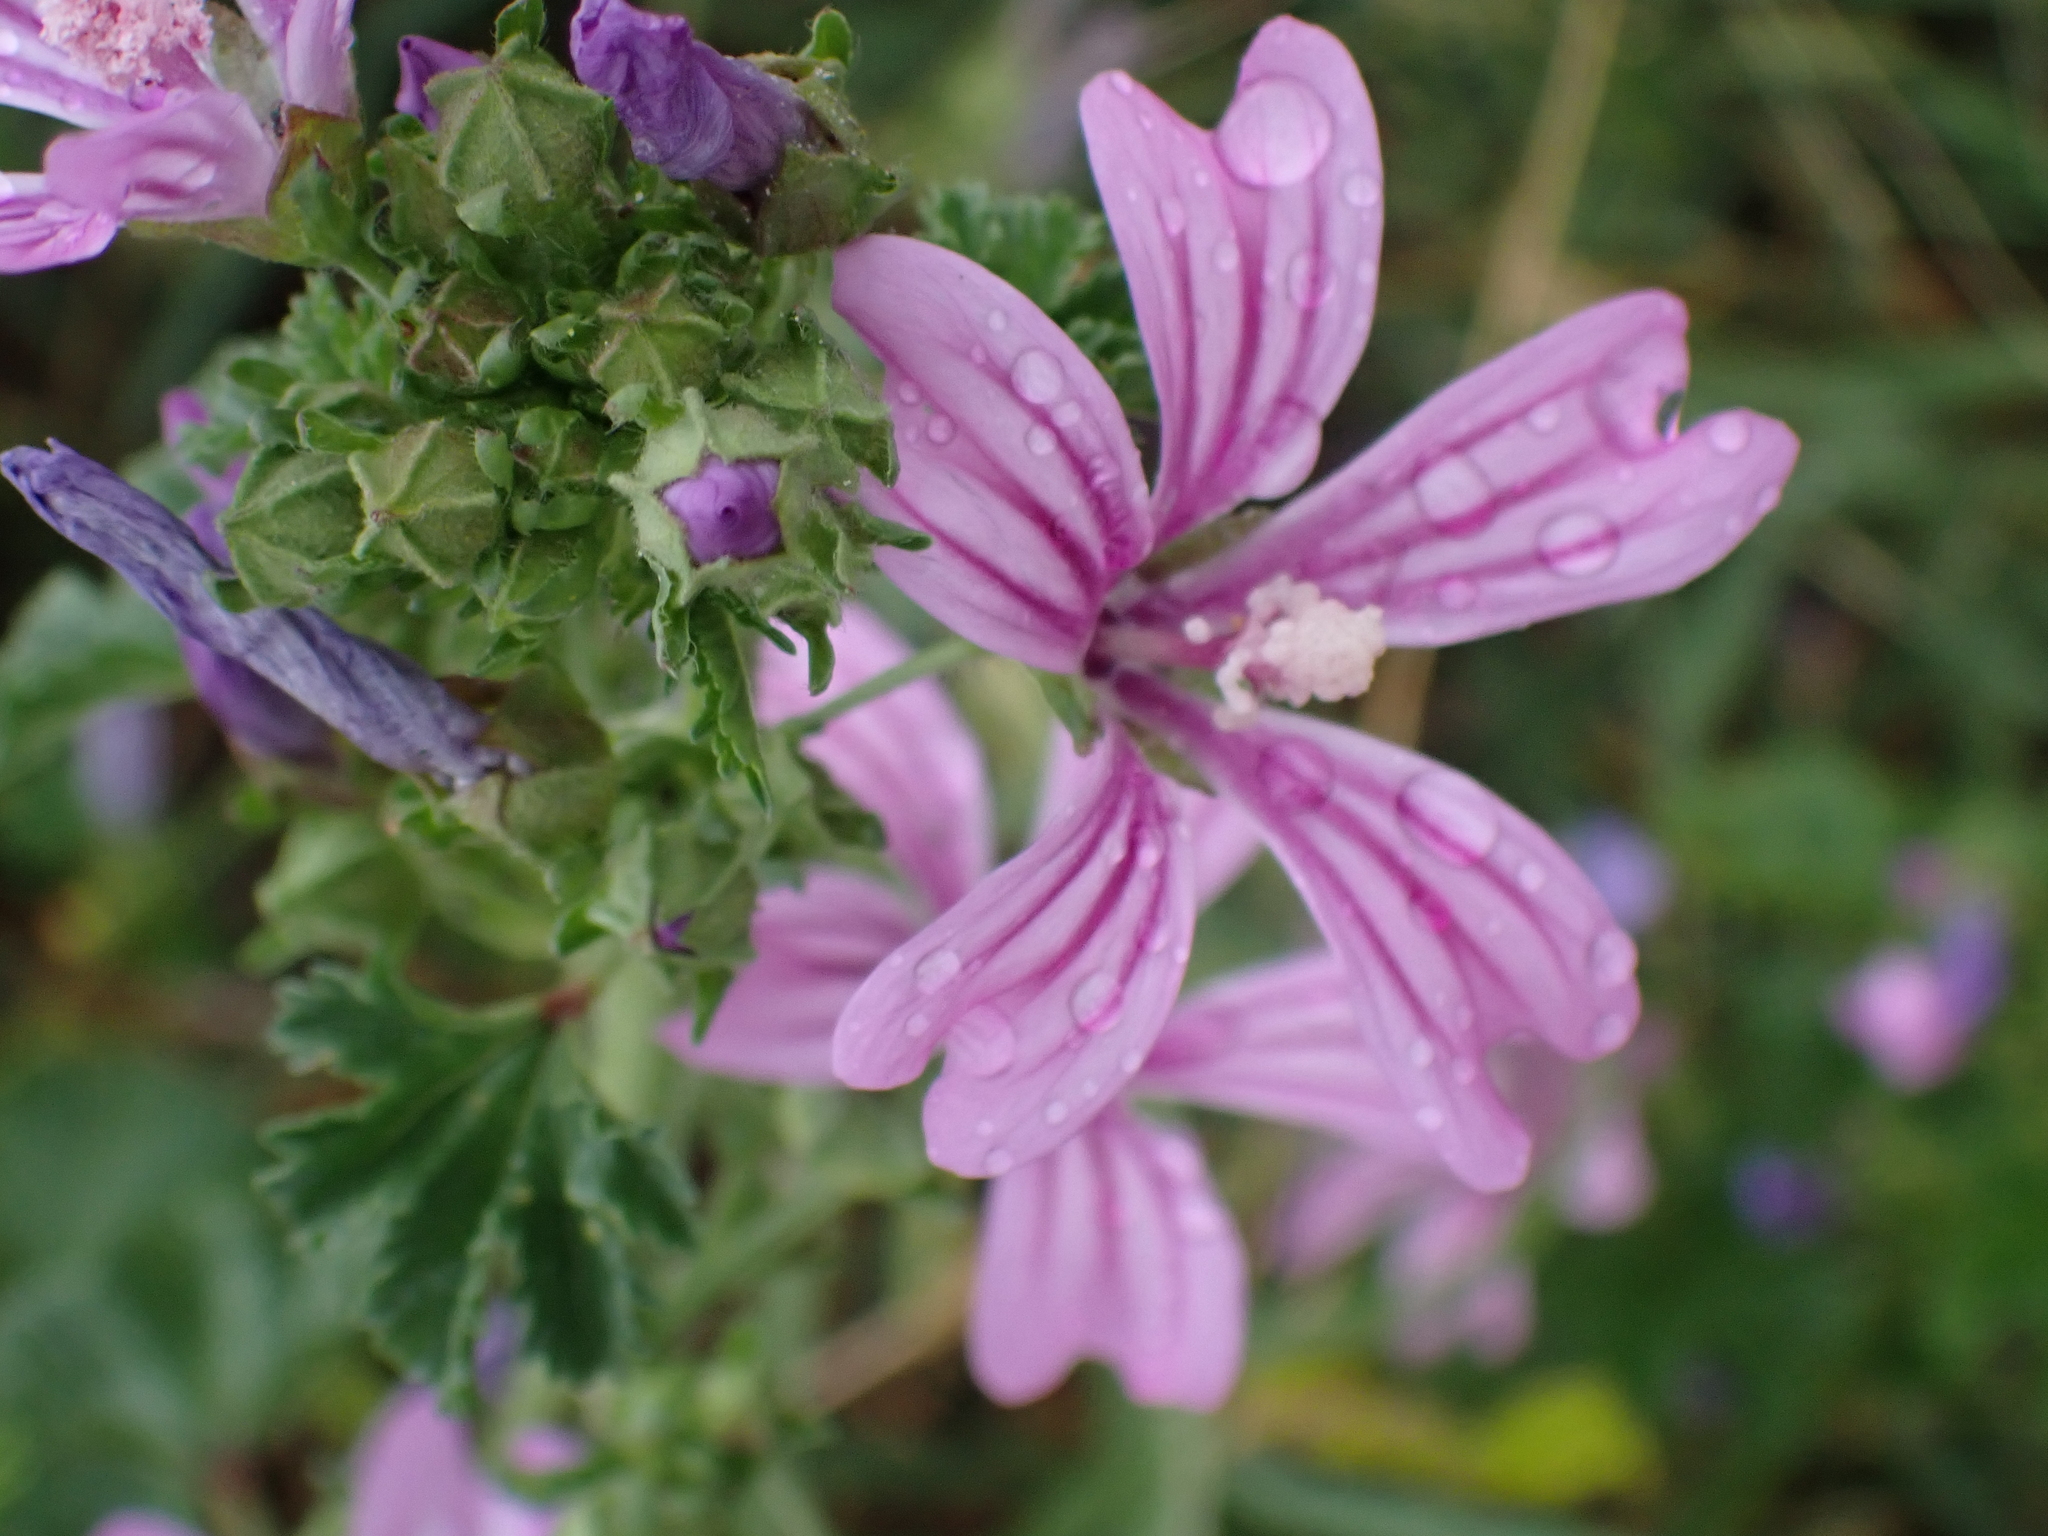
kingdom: Plantae
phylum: Tracheophyta
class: Magnoliopsida
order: Malvales
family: Malvaceae
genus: Malva
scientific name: Malva sylvestris
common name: Common mallow
